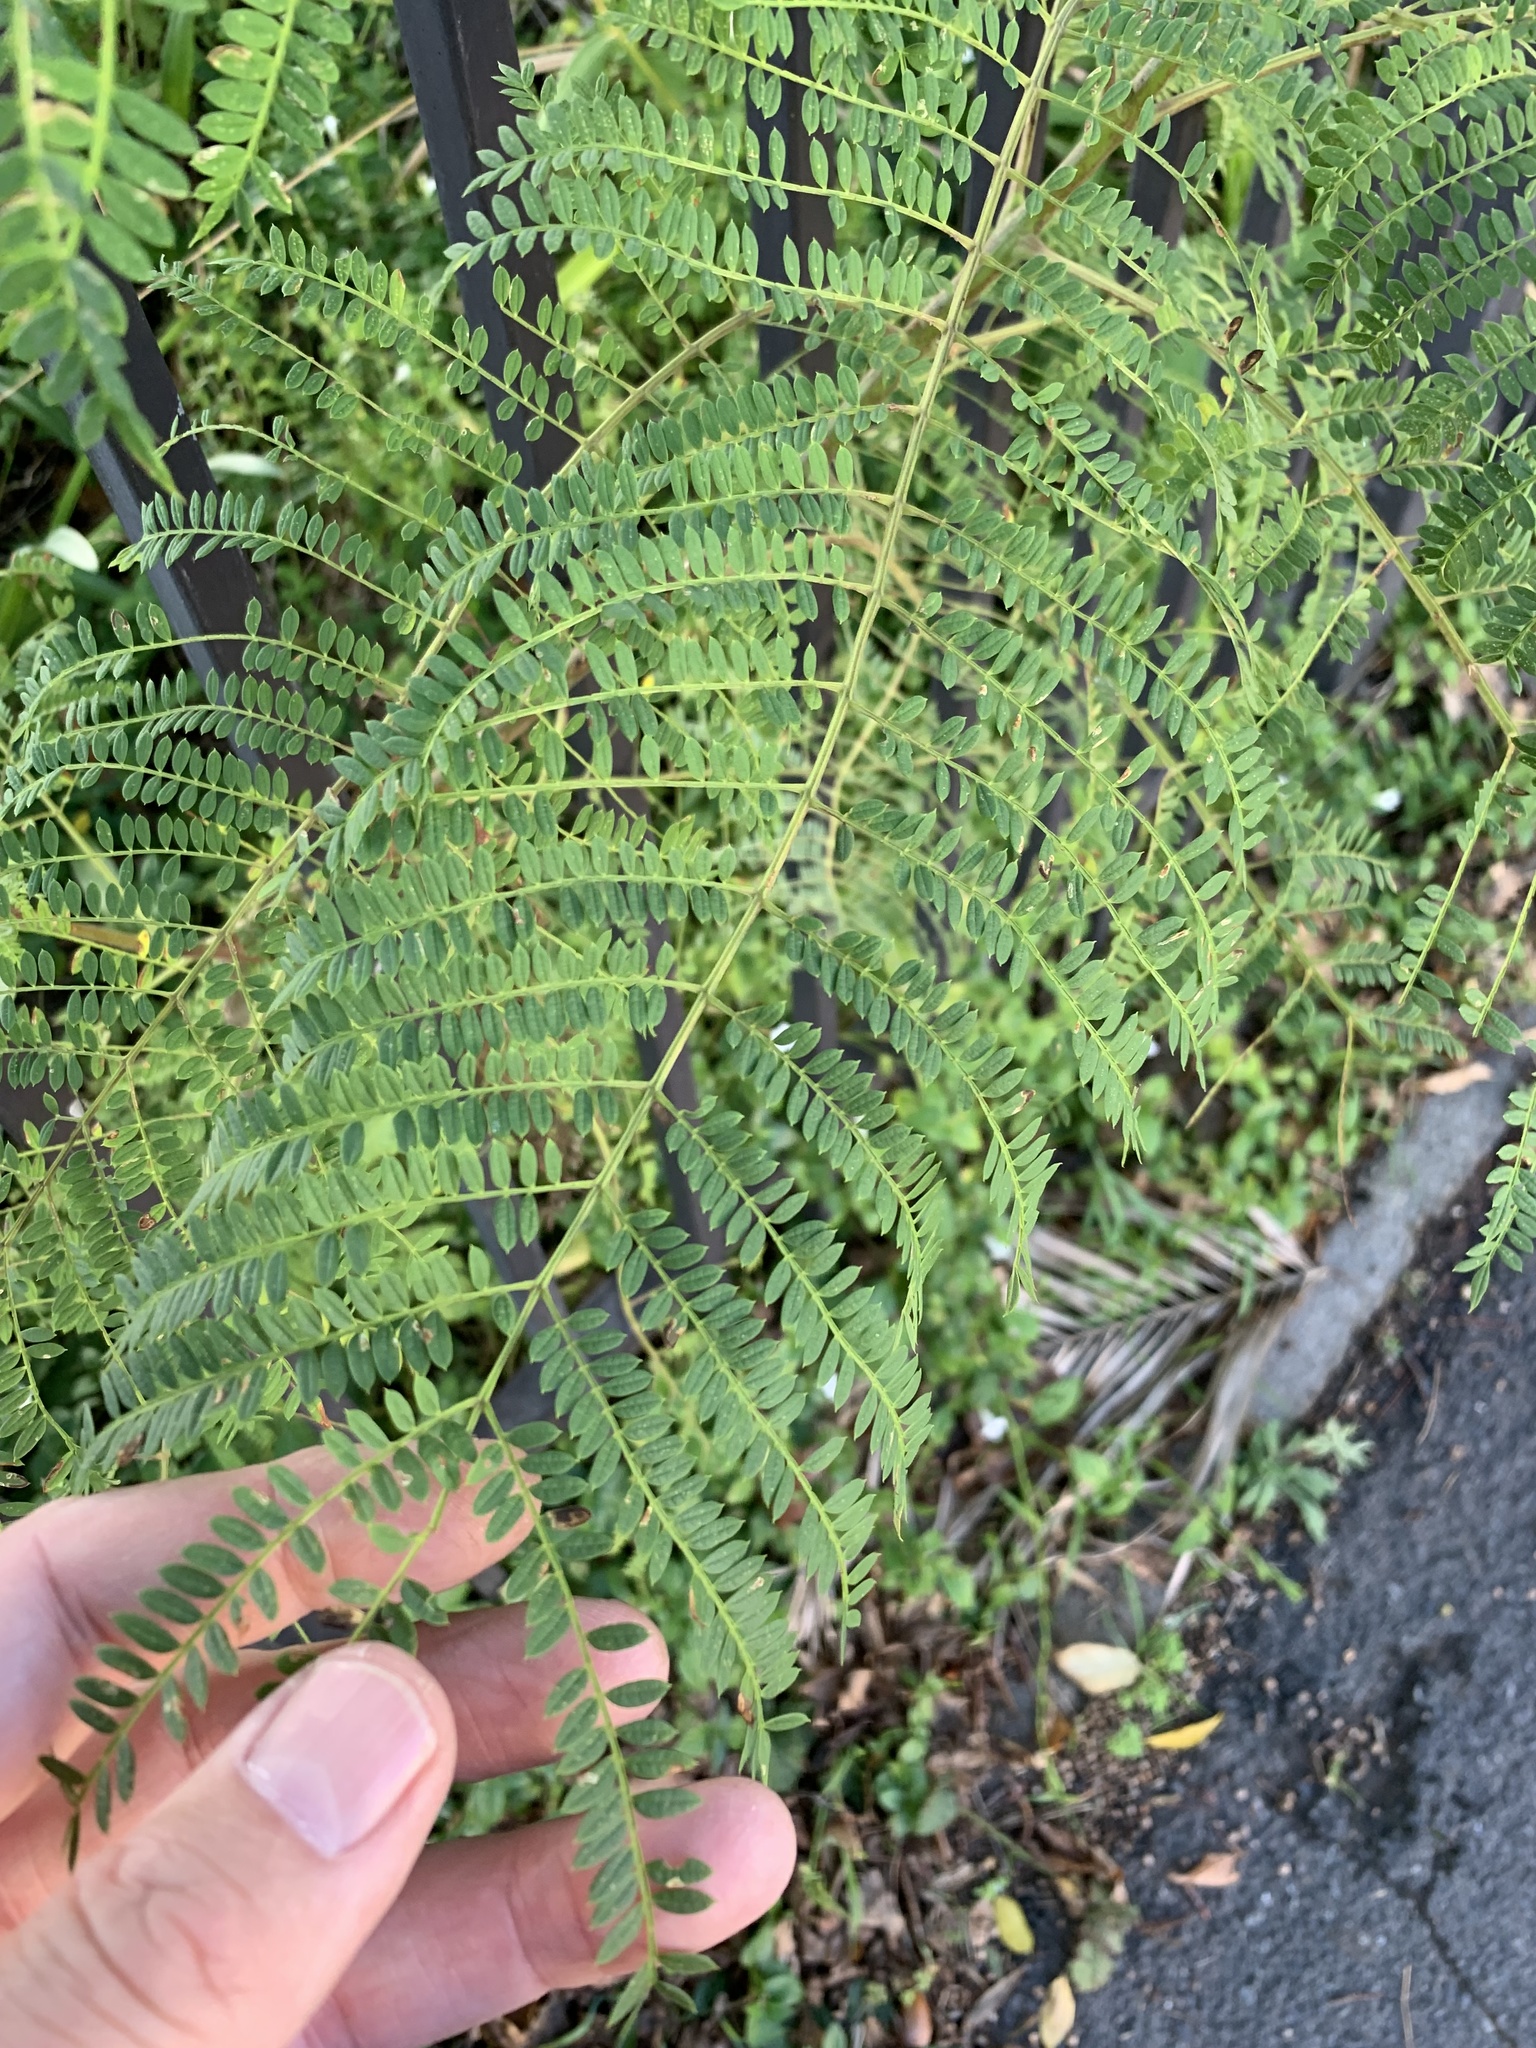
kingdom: Plantae
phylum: Tracheophyta
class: Magnoliopsida
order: Lamiales
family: Bignoniaceae
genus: Jacaranda
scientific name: Jacaranda mimosifolia
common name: Black poui
